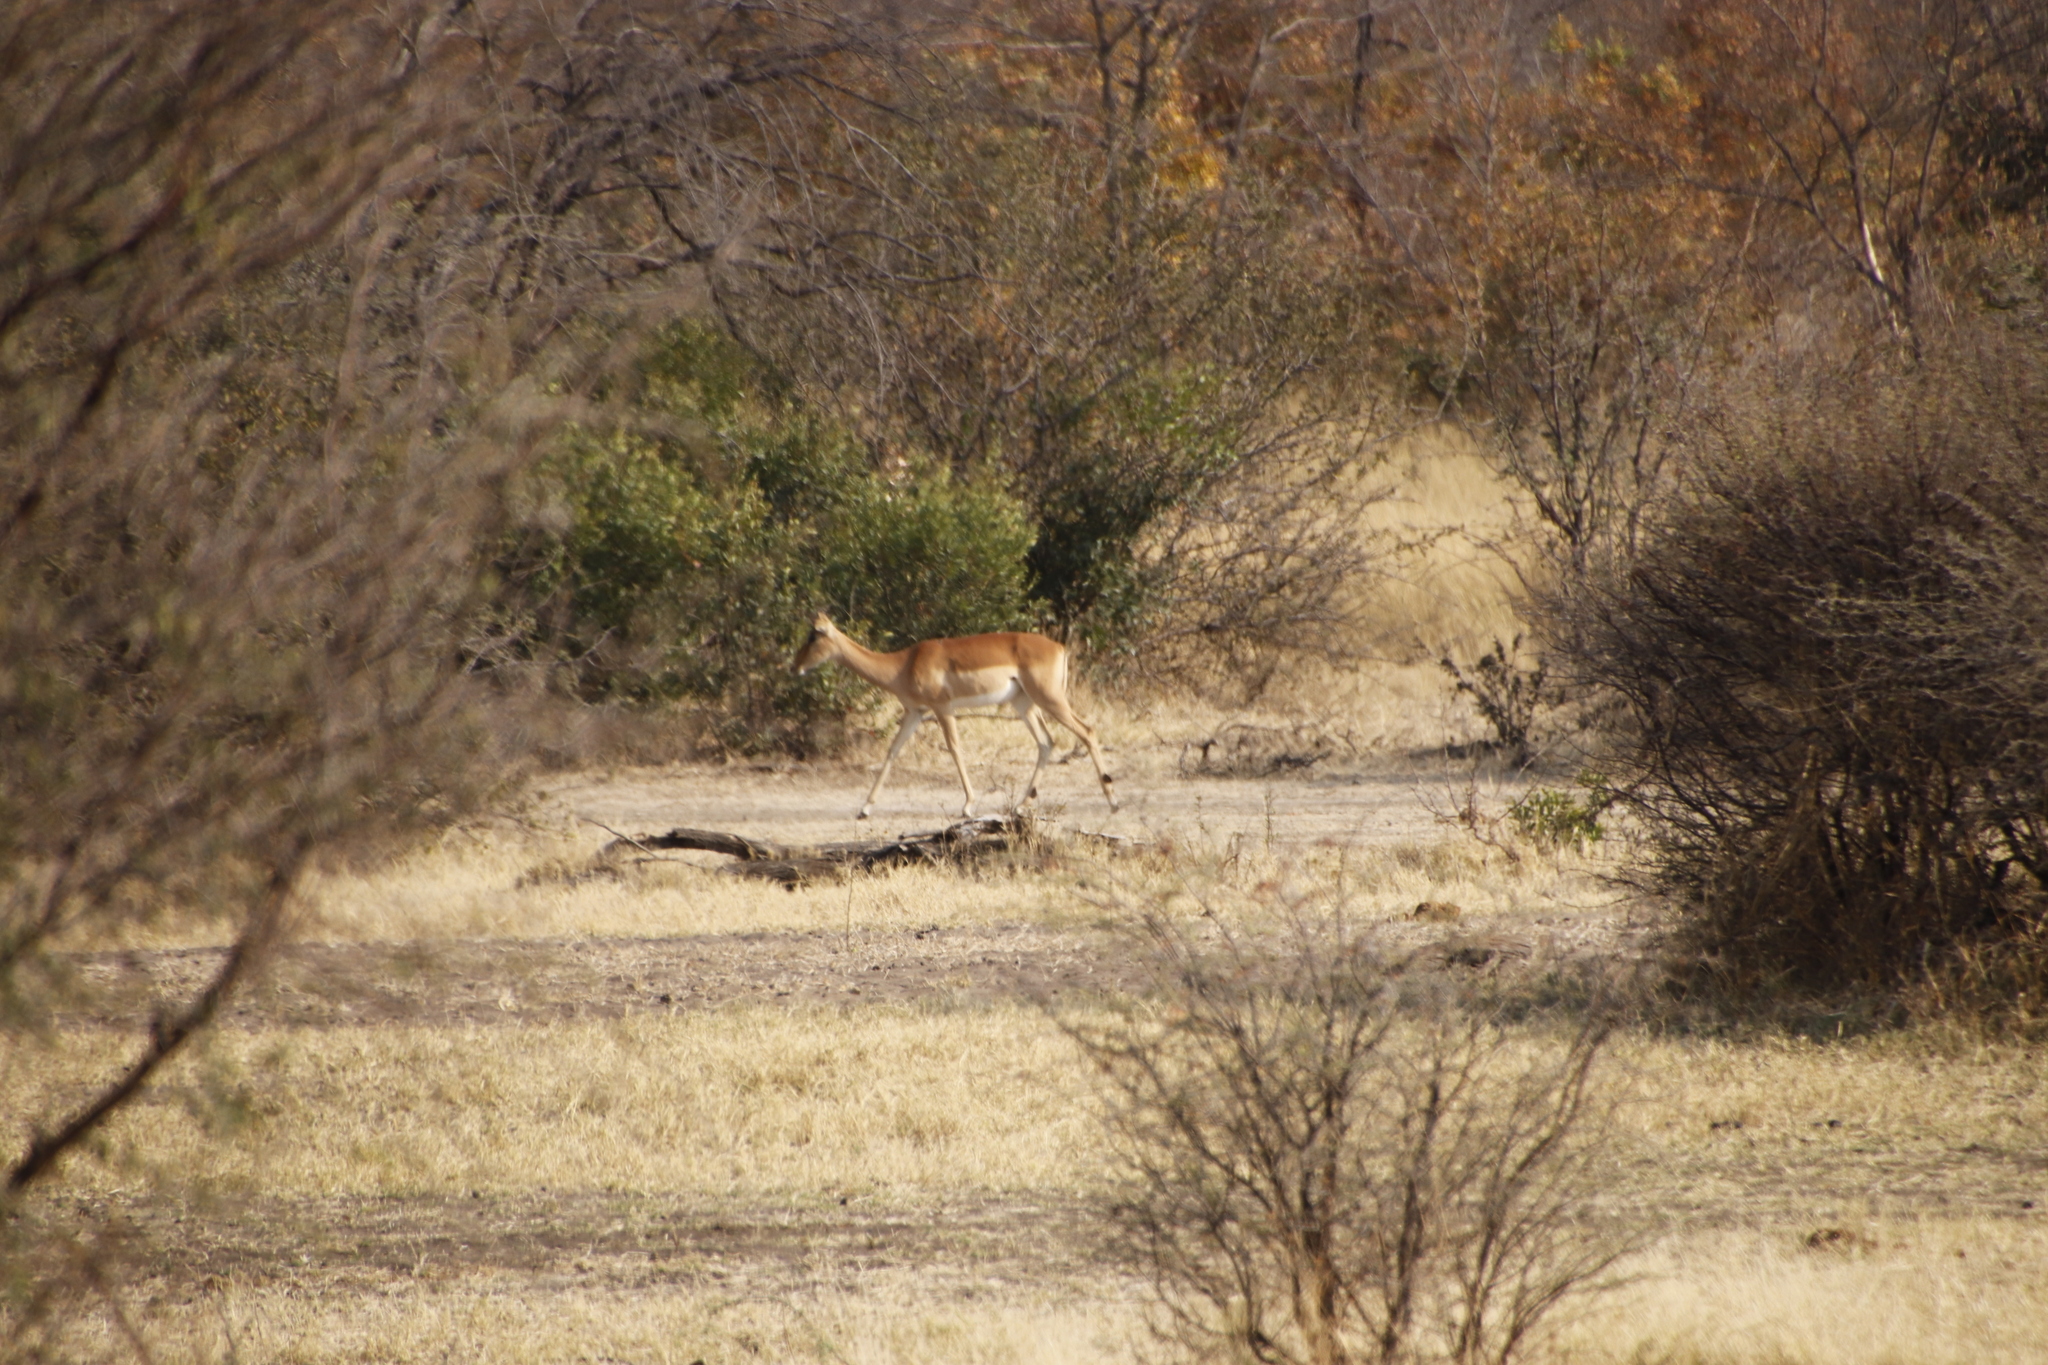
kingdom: Animalia
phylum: Chordata
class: Mammalia
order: Artiodactyla
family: Bovidae
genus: Aepyceros
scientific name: Aepyceros melampus
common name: Impala
